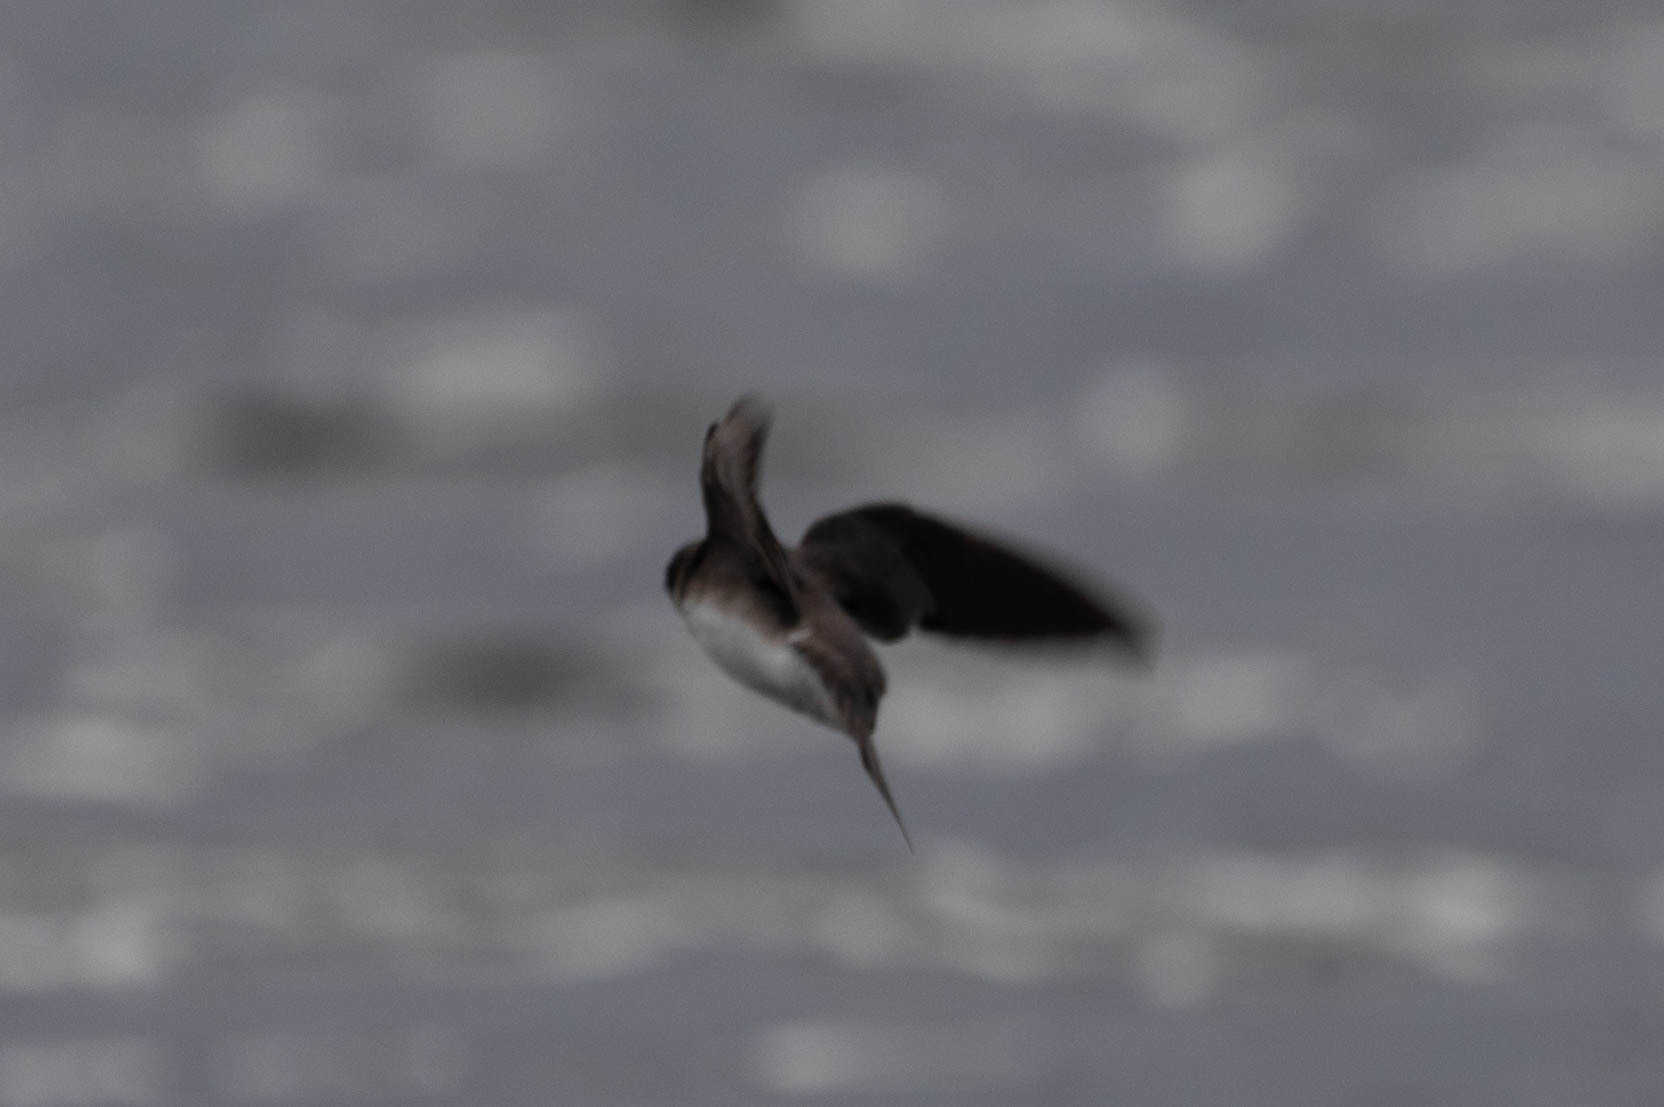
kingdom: Animalia
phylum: Chordata
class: Aves
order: Passeriformes
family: Hirundinidae
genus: Tachycineta
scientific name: Tachycineta bicolor
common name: Tree swallow
